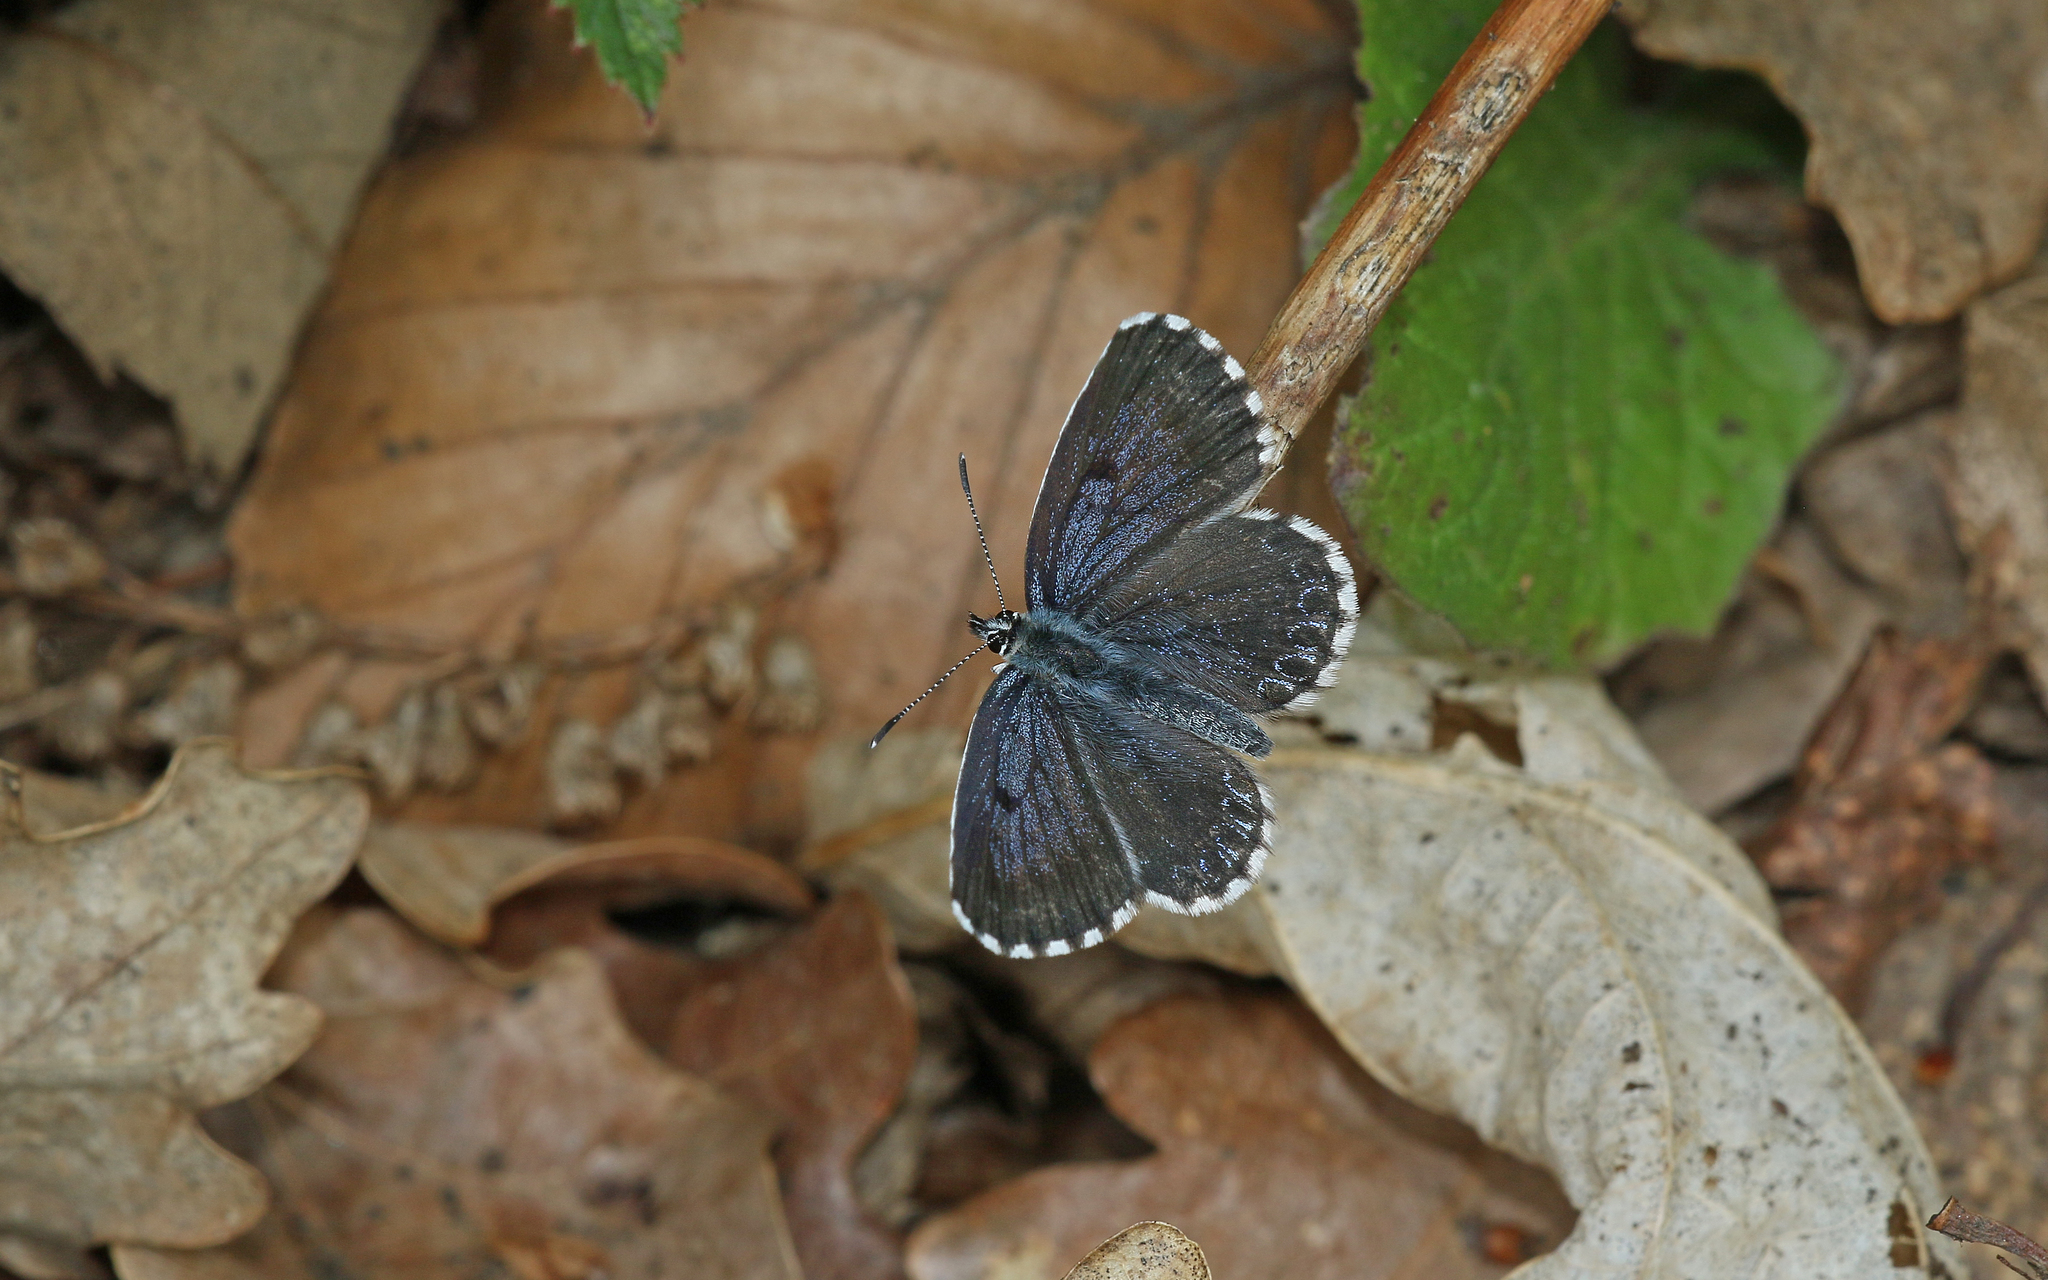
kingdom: Animalia
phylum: Arthropoda
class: Insecta
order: Lepidoptera
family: Lycaenidae
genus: Scolitantides
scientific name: Scolitantides orion
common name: Chequered blue
